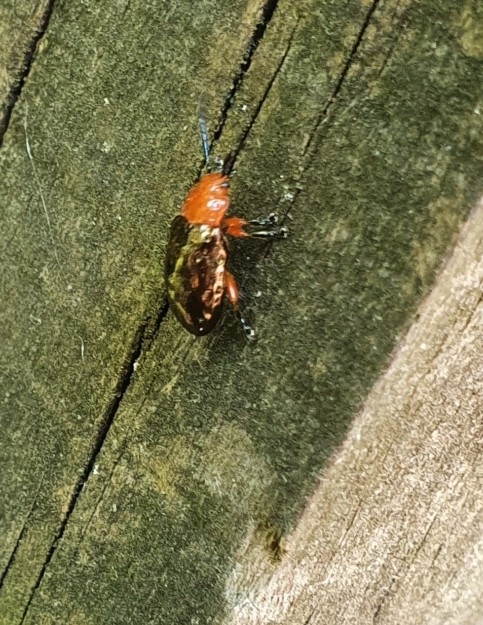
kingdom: Animalia
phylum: Arthropoda
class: Insecta
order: Coleoptera
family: Chrysomelidae
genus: Lamprolina
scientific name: Lamprolina
